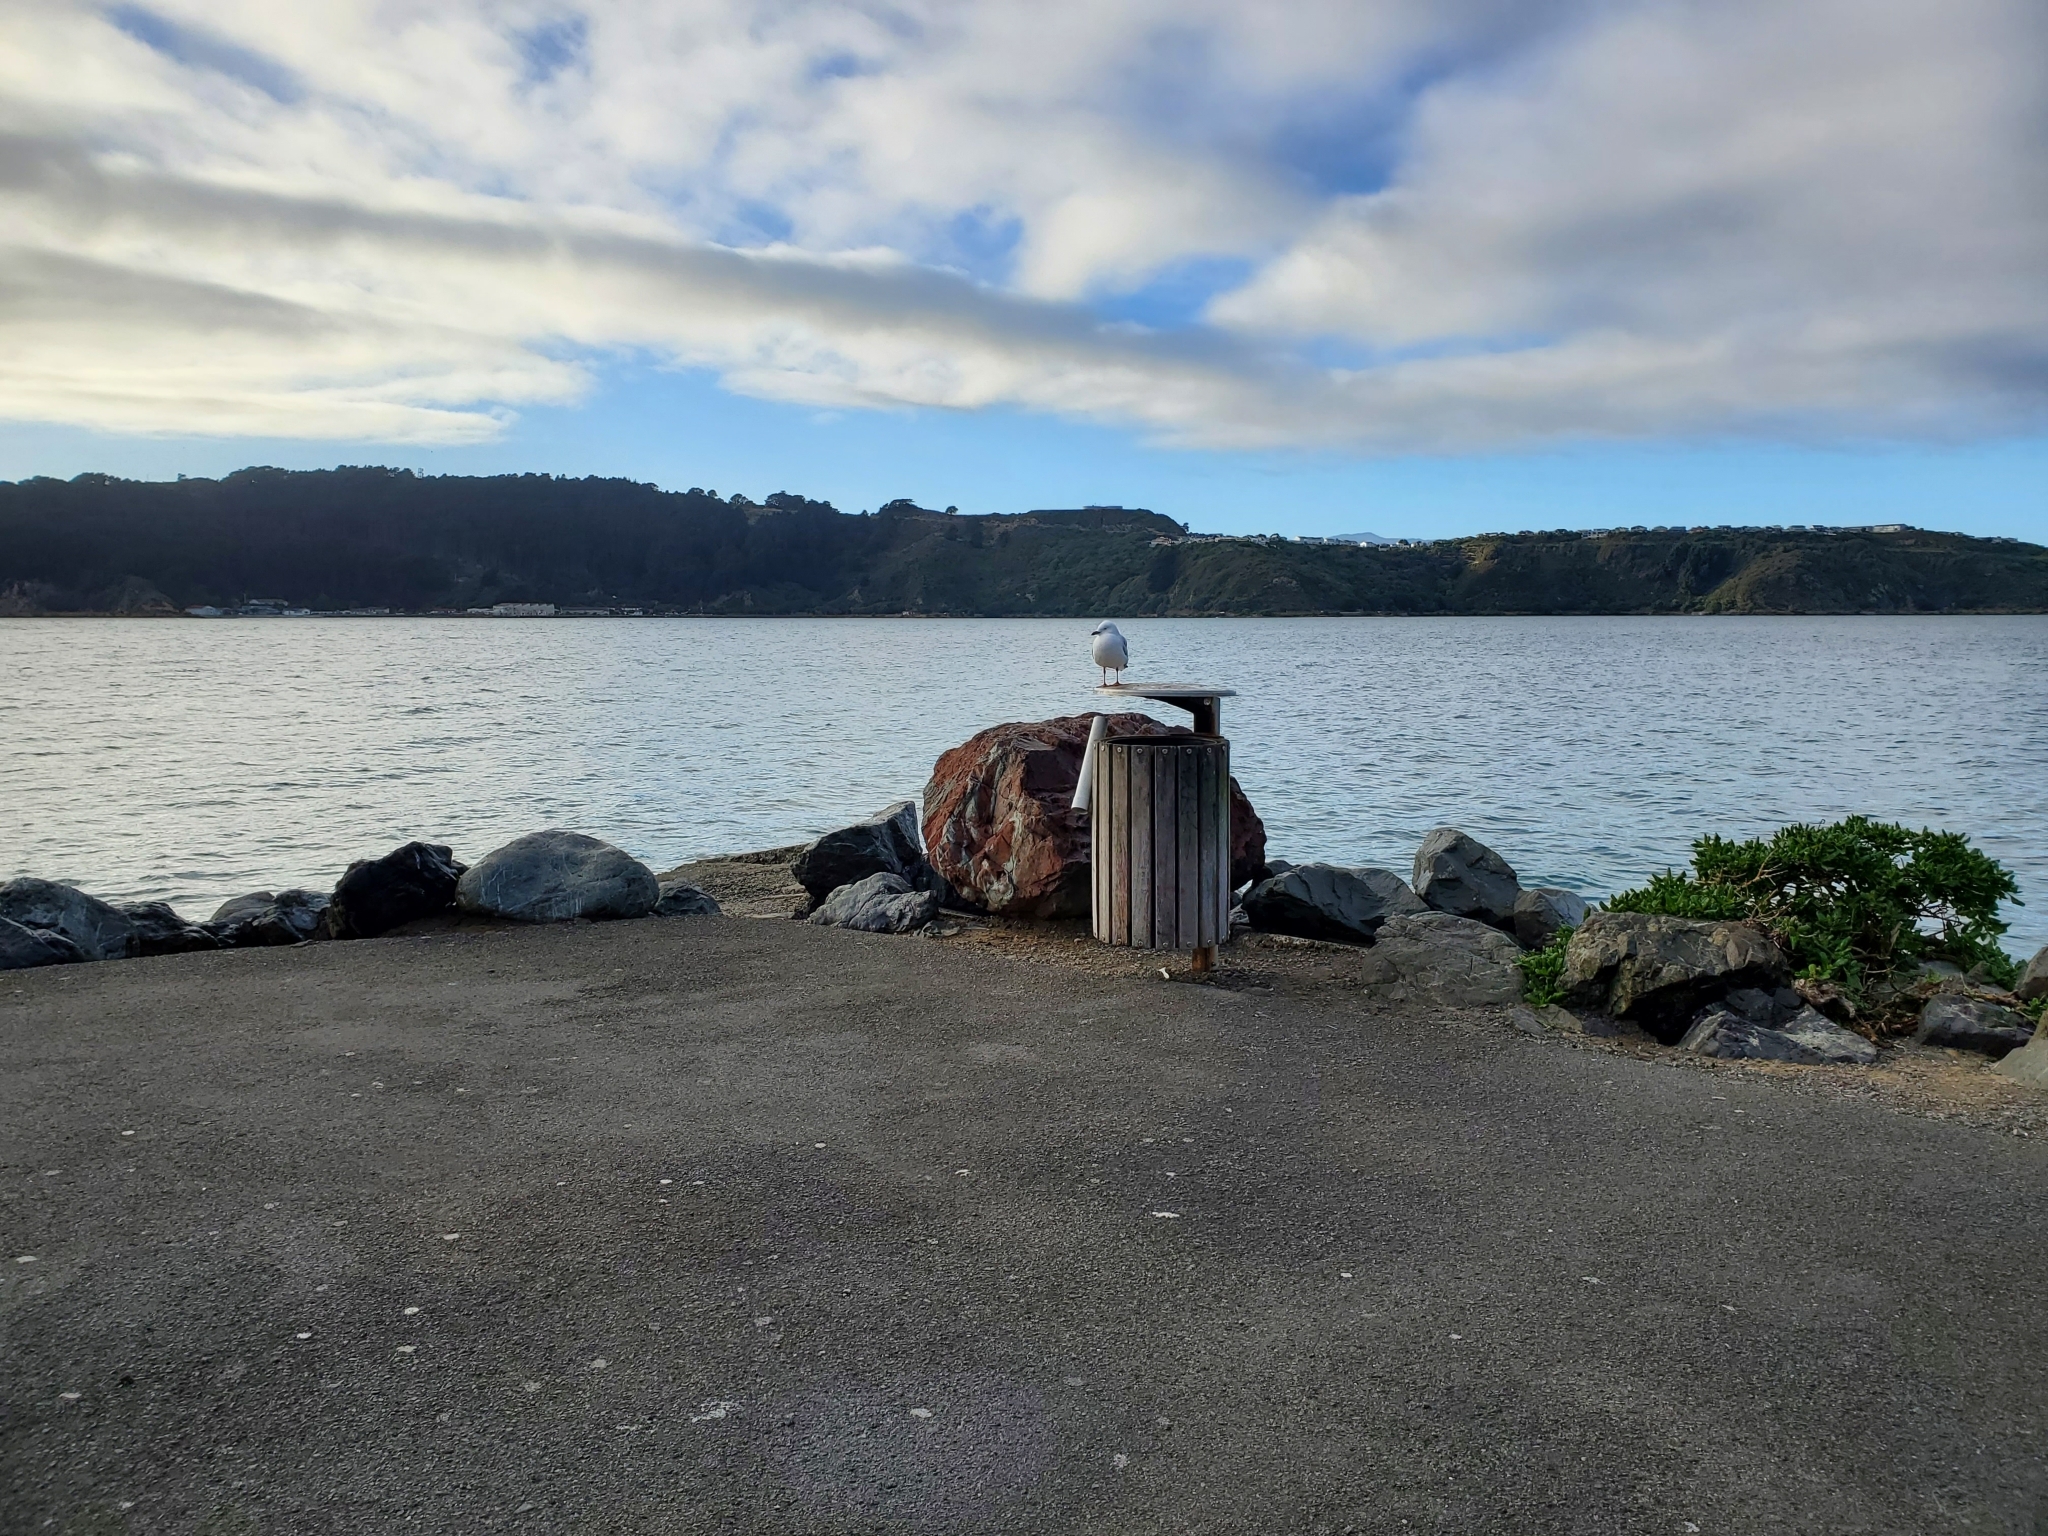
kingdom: Animalia
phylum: Chordata
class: Aves
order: Charadriiformes
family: Laridae
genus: Chroicocephalus
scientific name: Chroicocephalus novaehollandiae
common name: Silver gull
